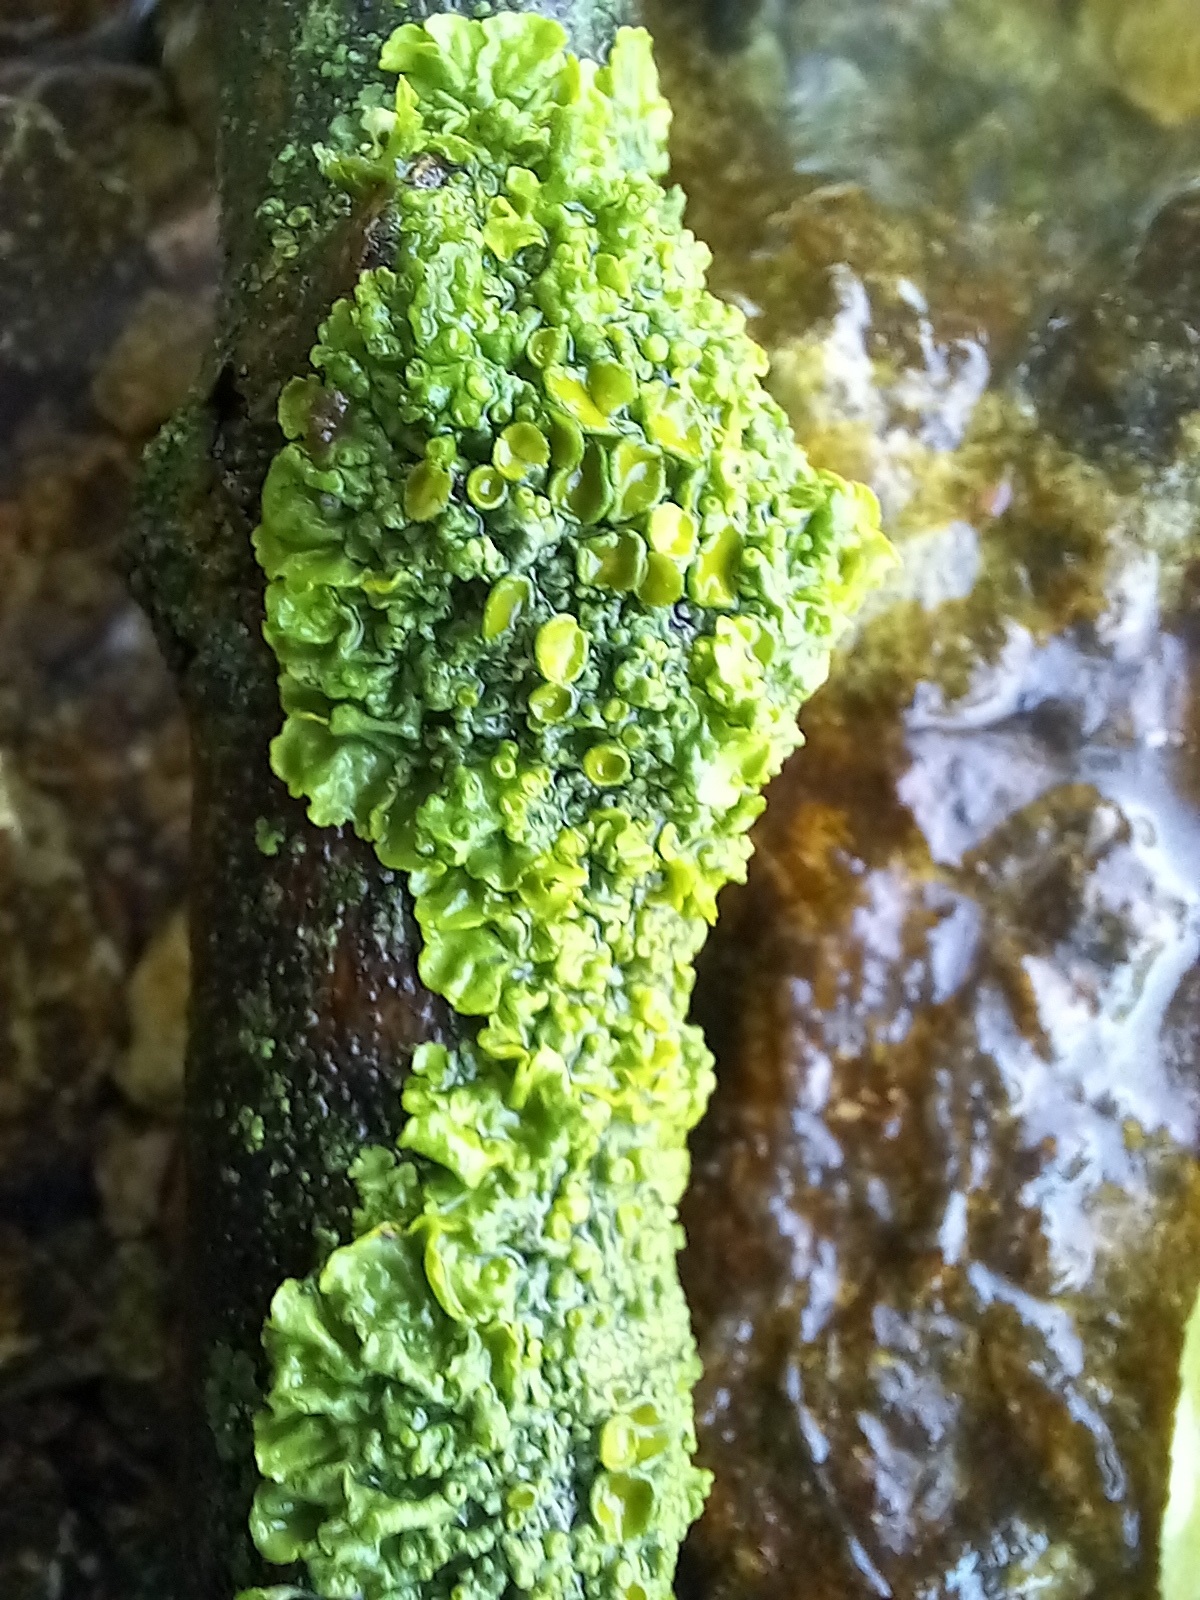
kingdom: Fungi
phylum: Ascomycota
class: Lecanoromycetes
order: Teloschistales
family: Teloschistaceae
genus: Xanthoria
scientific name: Xanthoria parietina
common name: Common orange lichen
